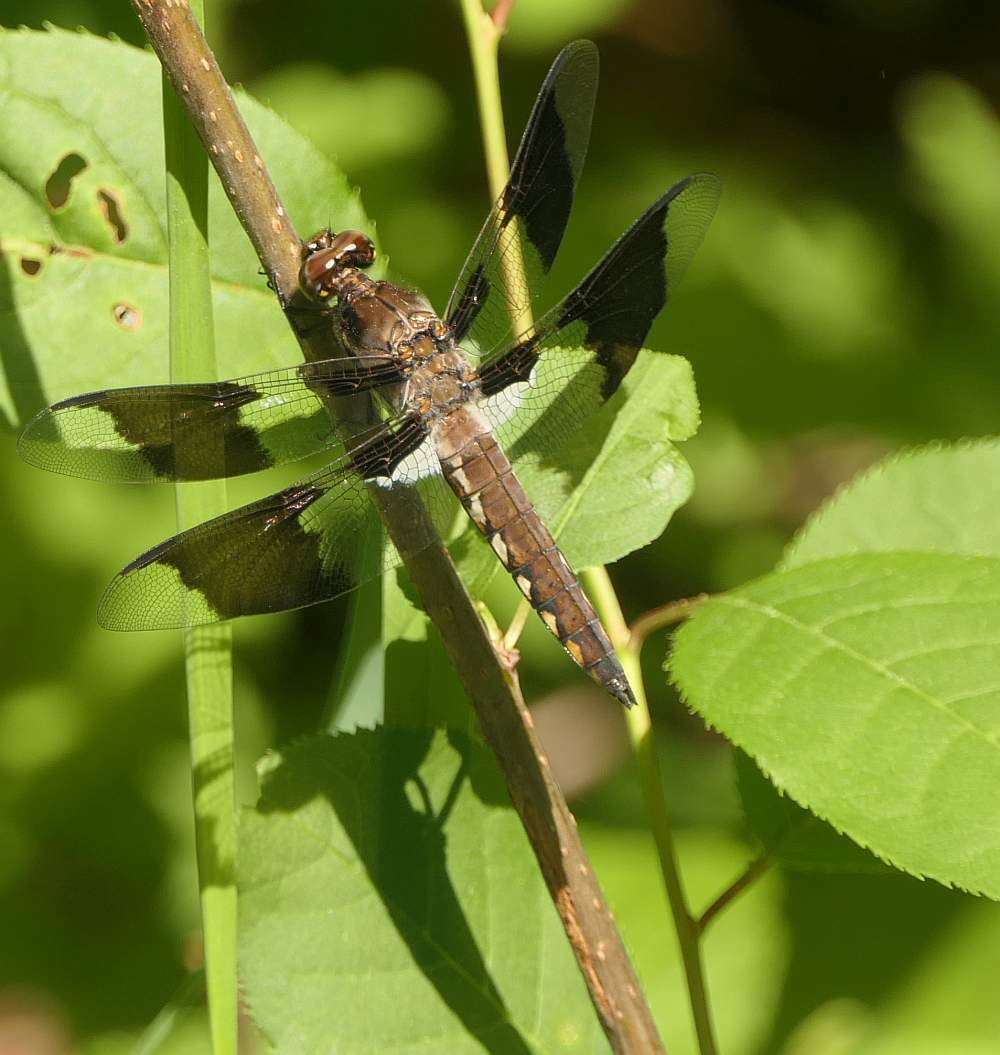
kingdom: Animalia
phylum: Arthropoda
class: Insecta
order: Odonata
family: Libellulidae
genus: Plathemis
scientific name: Plathemis lydia
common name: Common whitetail
